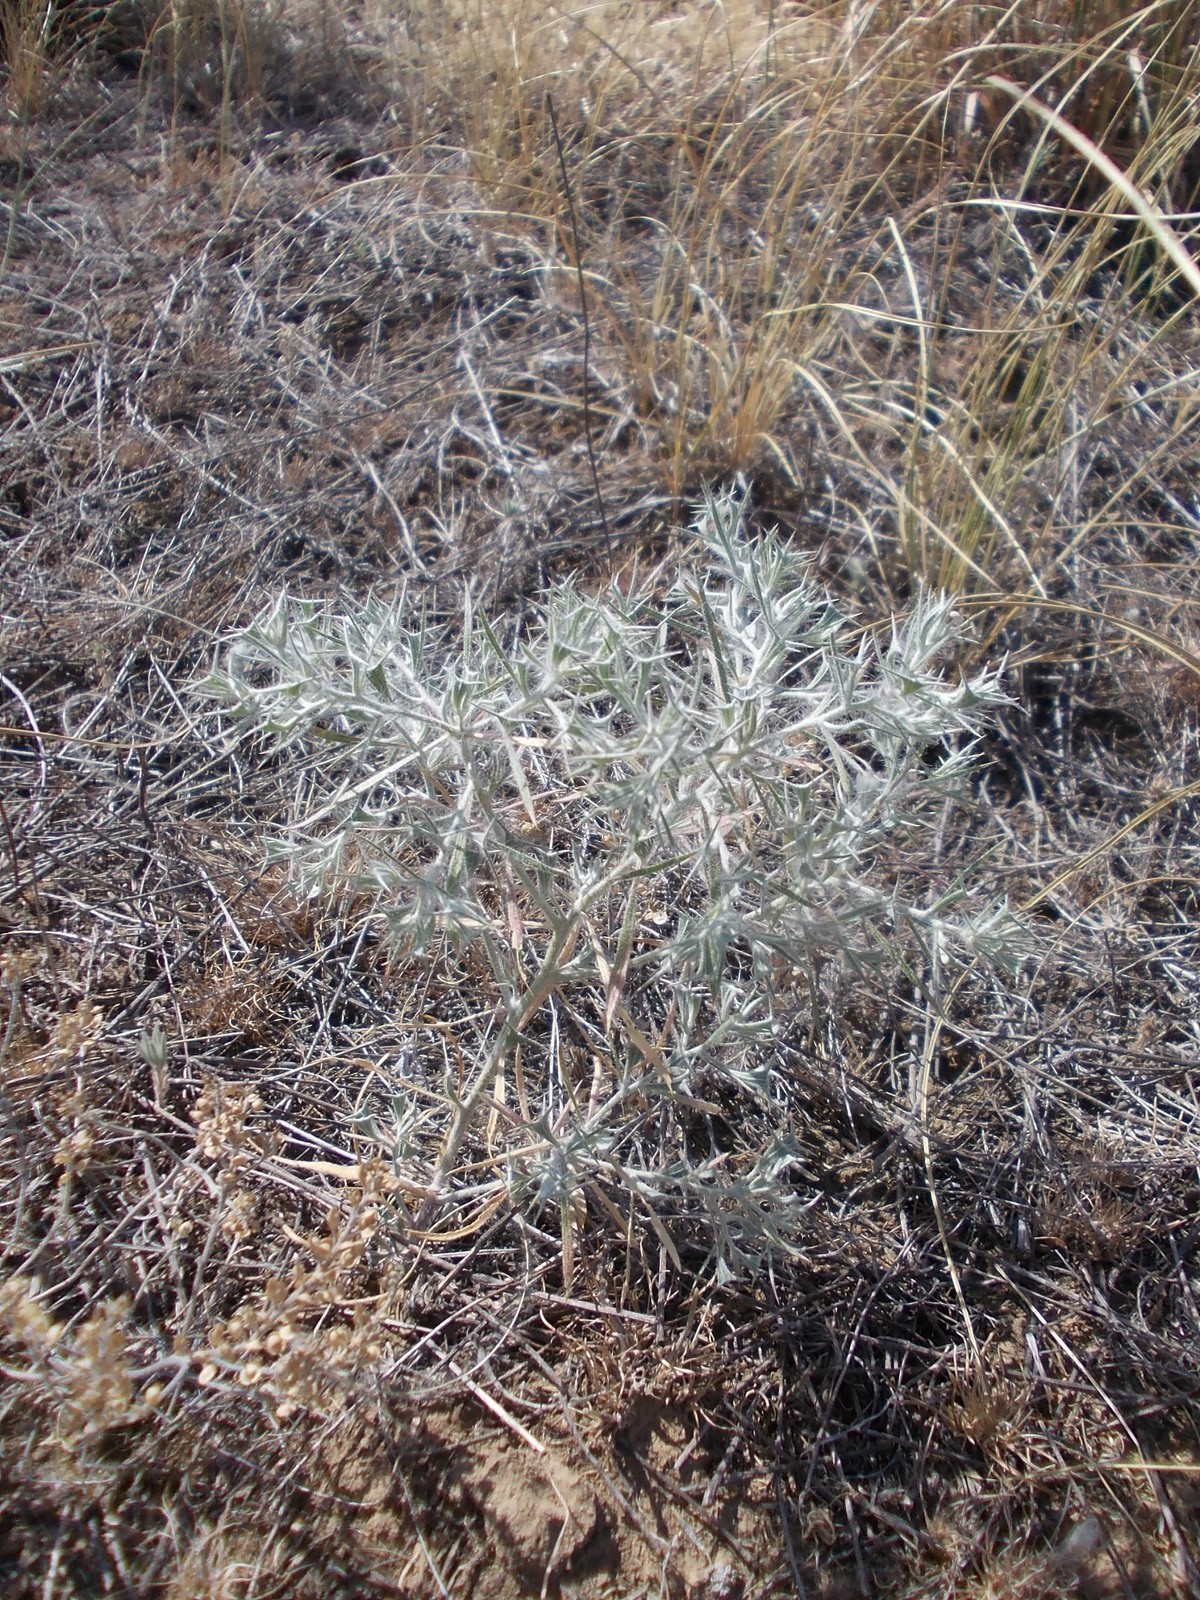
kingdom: Plantae
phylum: Tracheophyta
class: Magnoliopsida
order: Caryophyllales
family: Amaranthaceae
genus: Ceratocarpus
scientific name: Ceratocarpus arenarius
